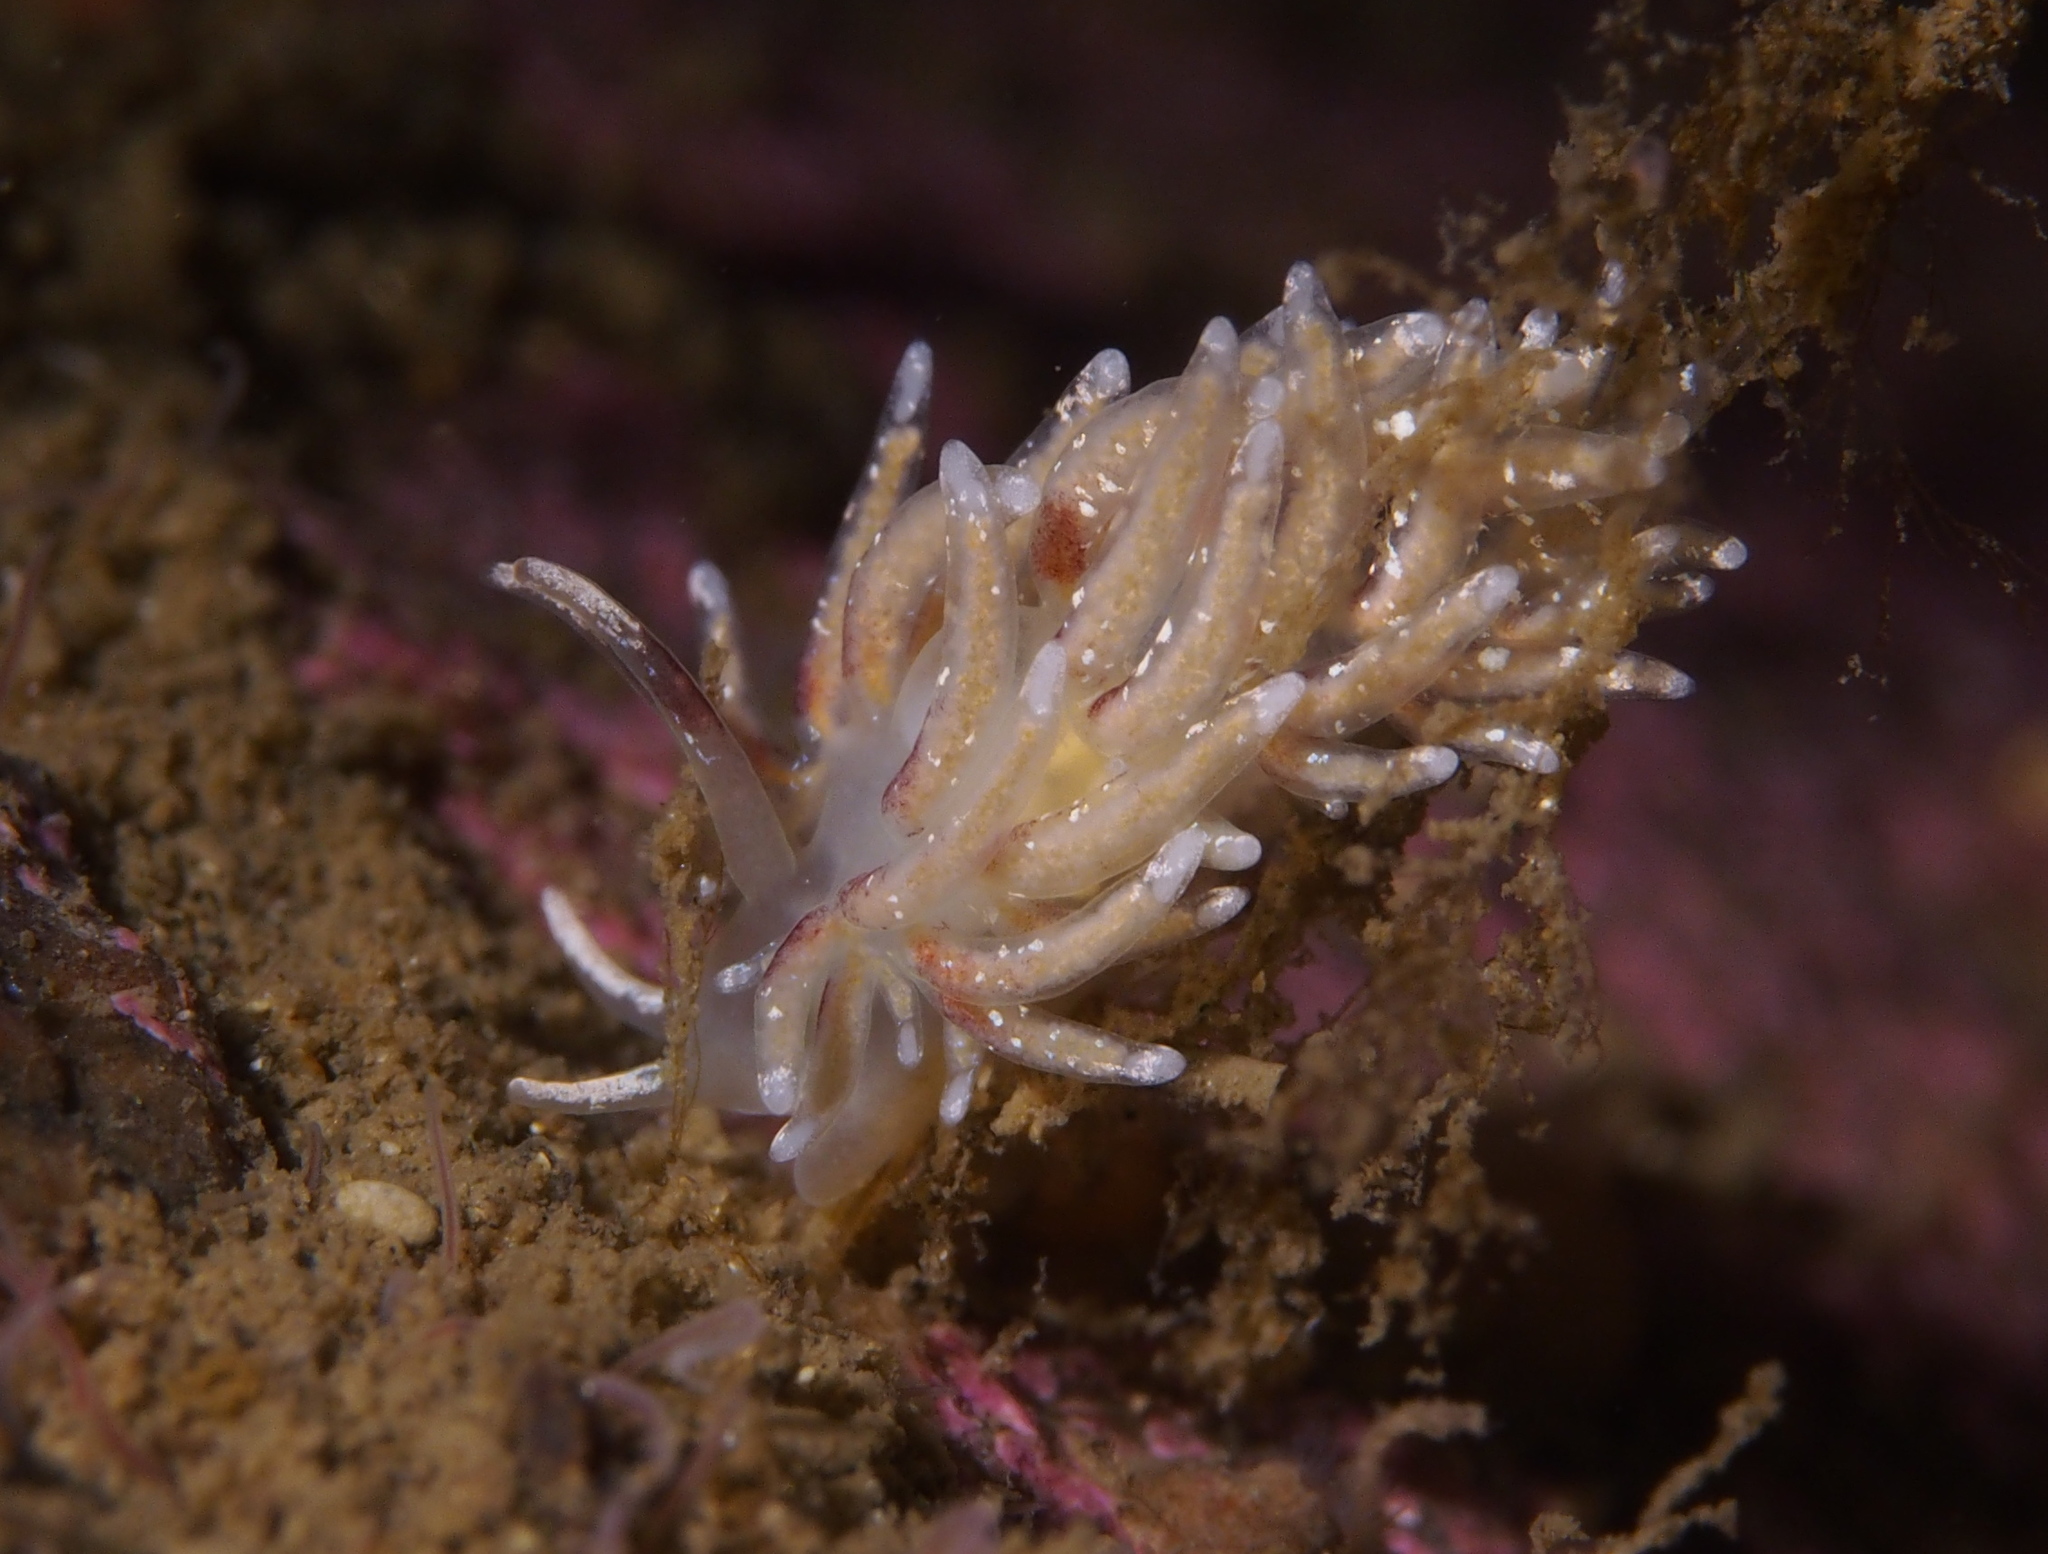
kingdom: Animalia
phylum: Mollusca
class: Gastropoda
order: Nudibranchia
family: Trinchesiidae
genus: Rubramoena
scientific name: Rubramoena rubescens
